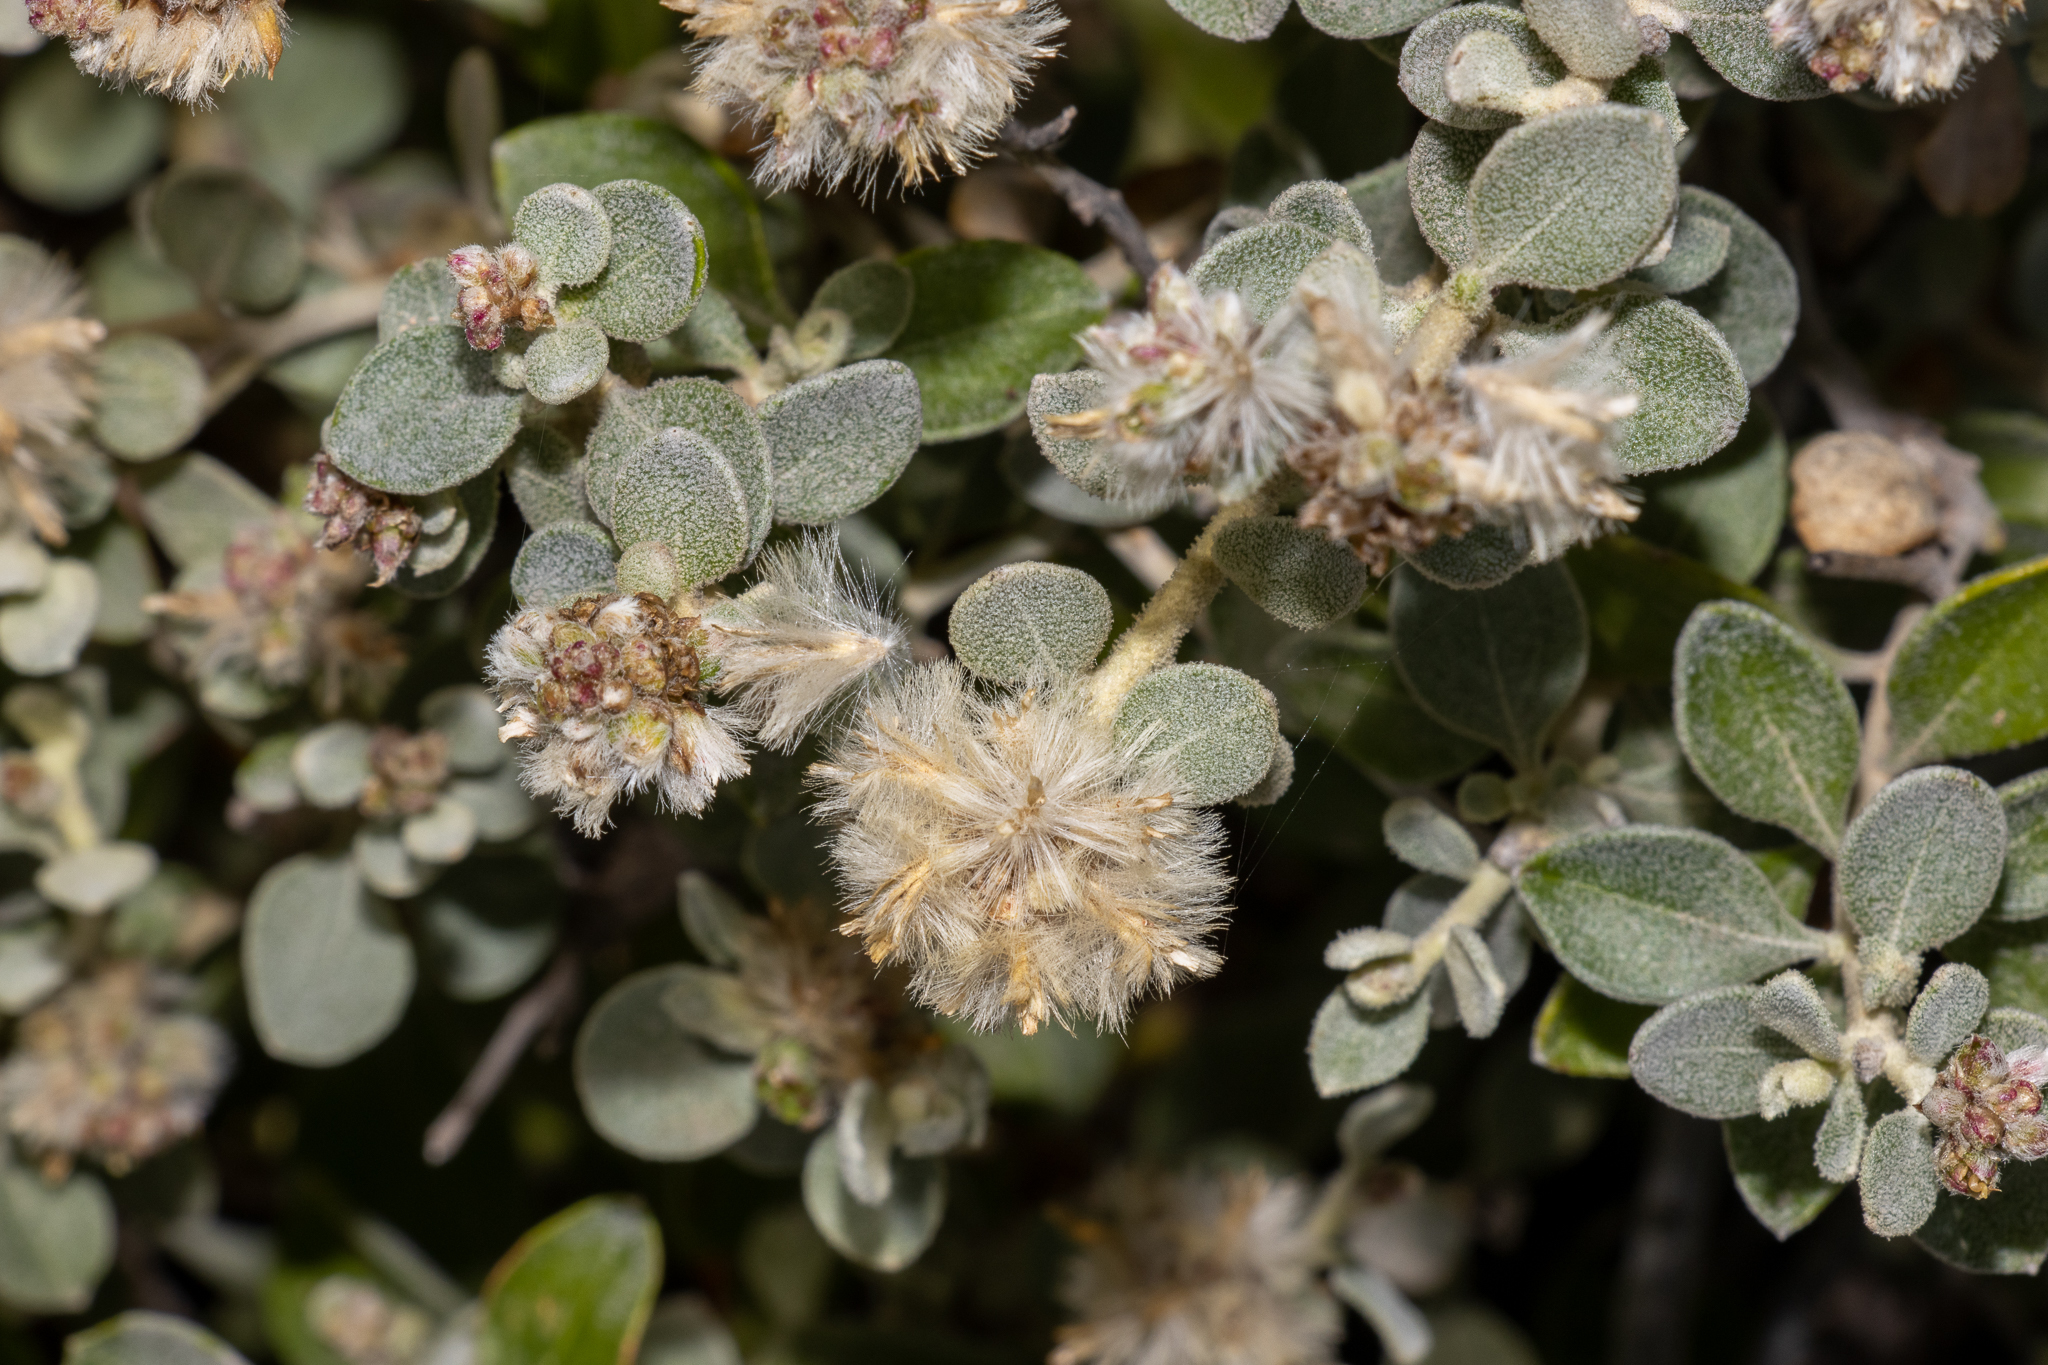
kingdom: Plantae
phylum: Tracheophyta
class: Magnoliopsida
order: Caryophyllales
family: Amaranthaceae
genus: Ptilotus
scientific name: Ptilotus obovatus
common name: Cottonbush
